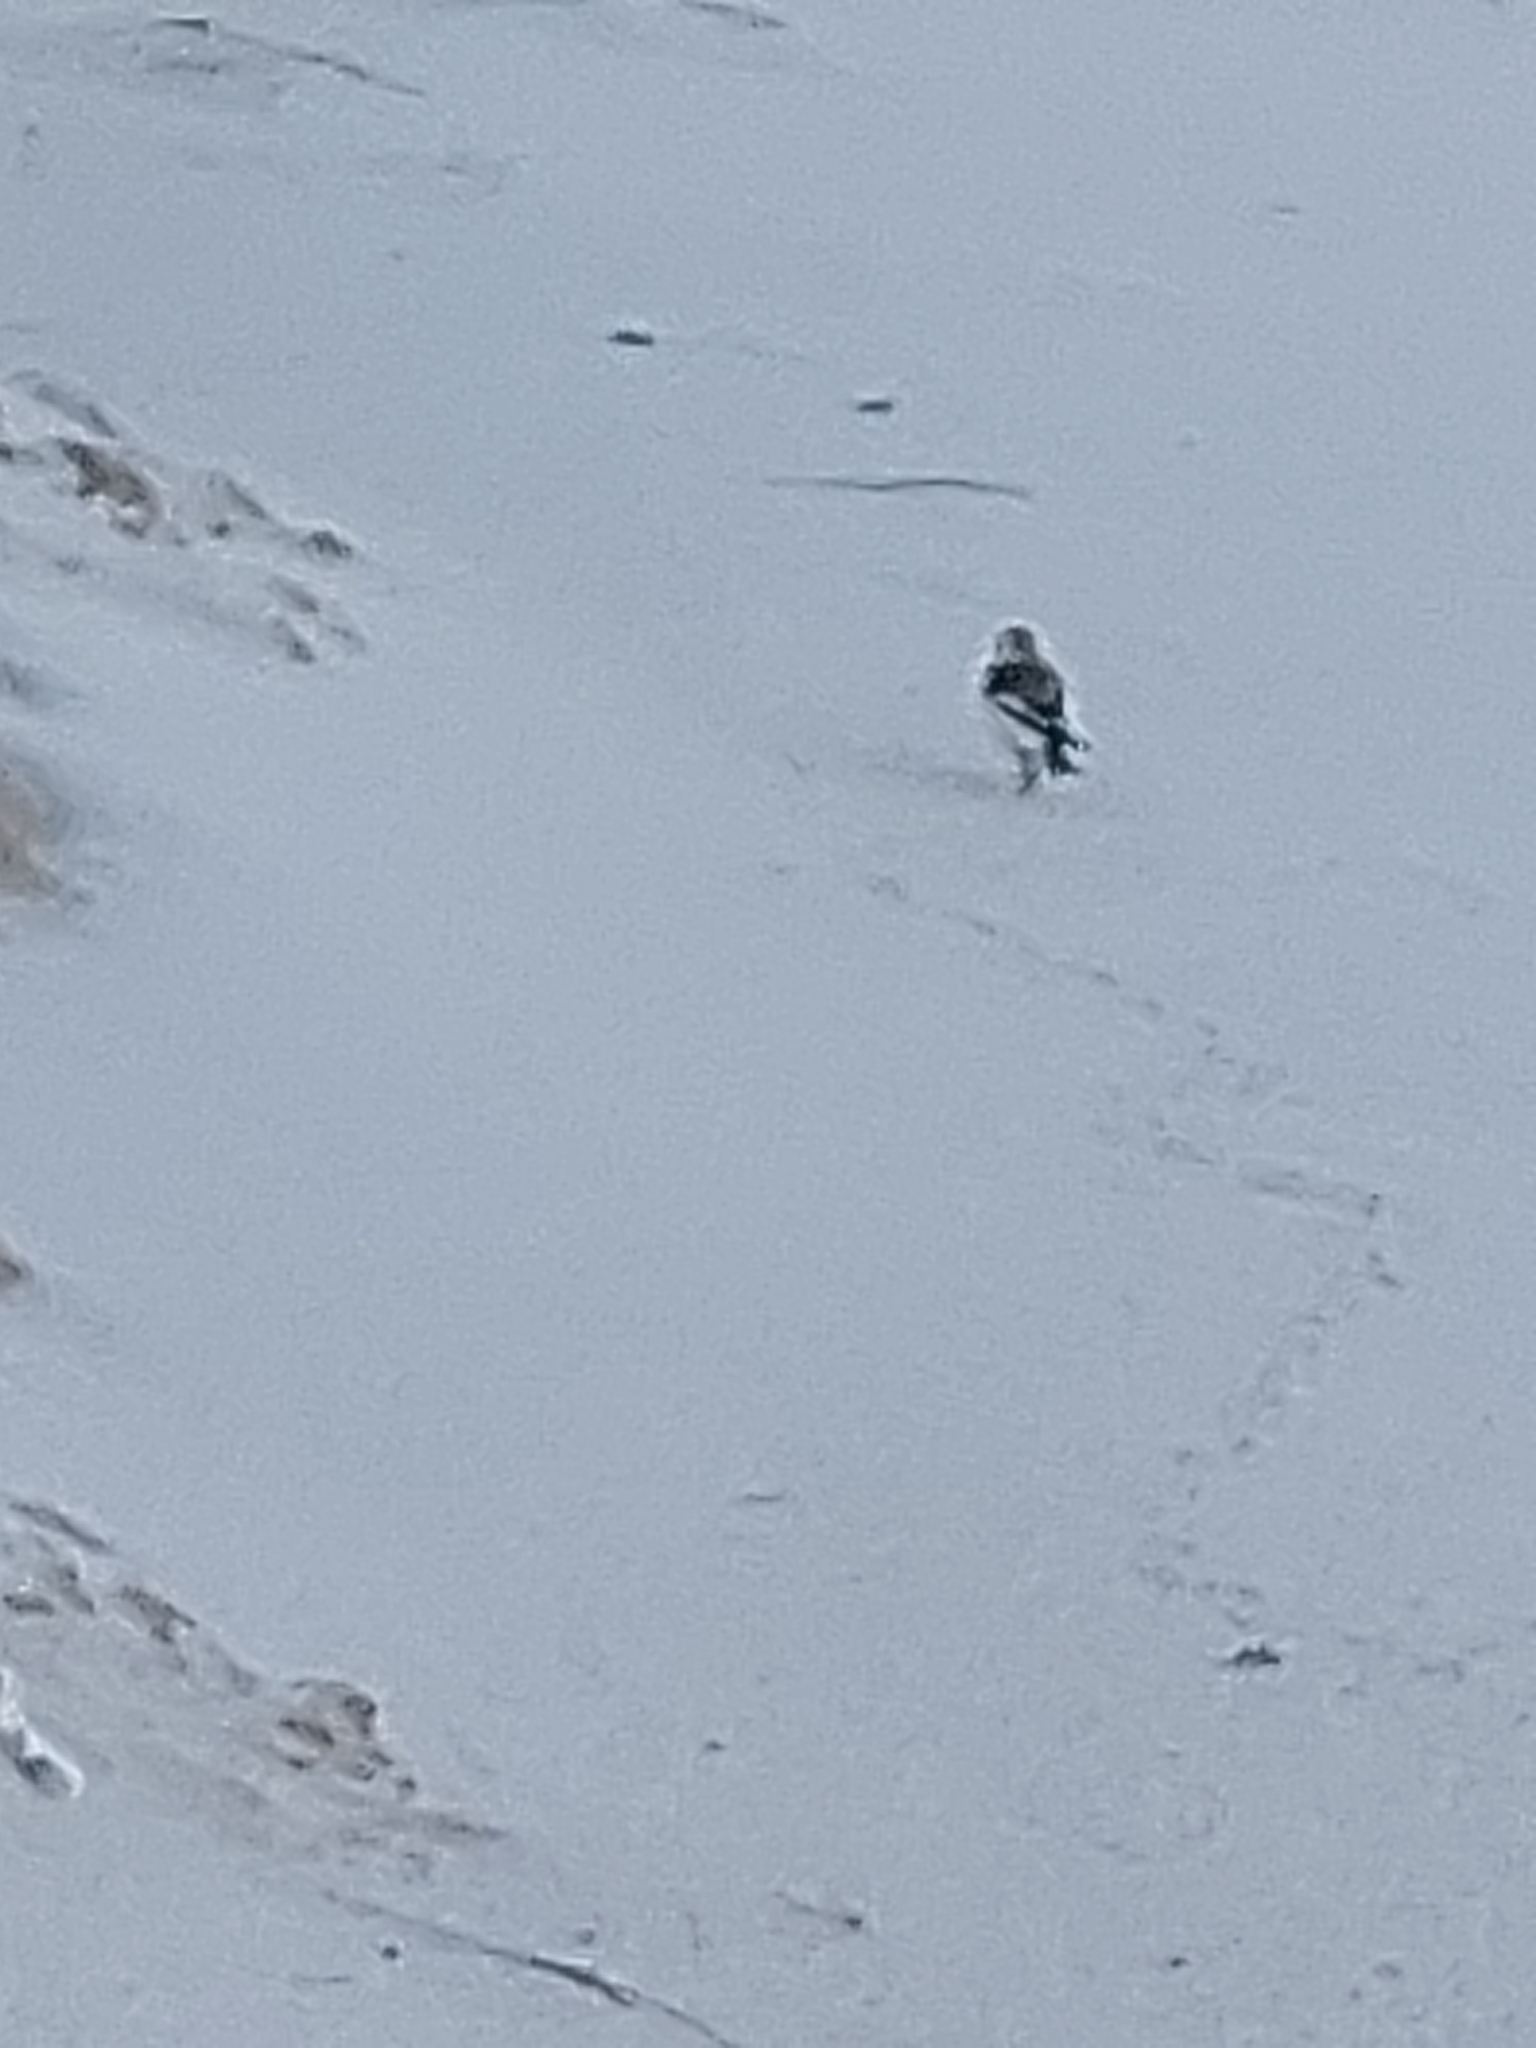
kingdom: Animalia
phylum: Chordata
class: Aves
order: Passeriformes
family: Calcariidae
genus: Plectrophenax
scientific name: Plectrophenax nivalis
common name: Snow bunting
